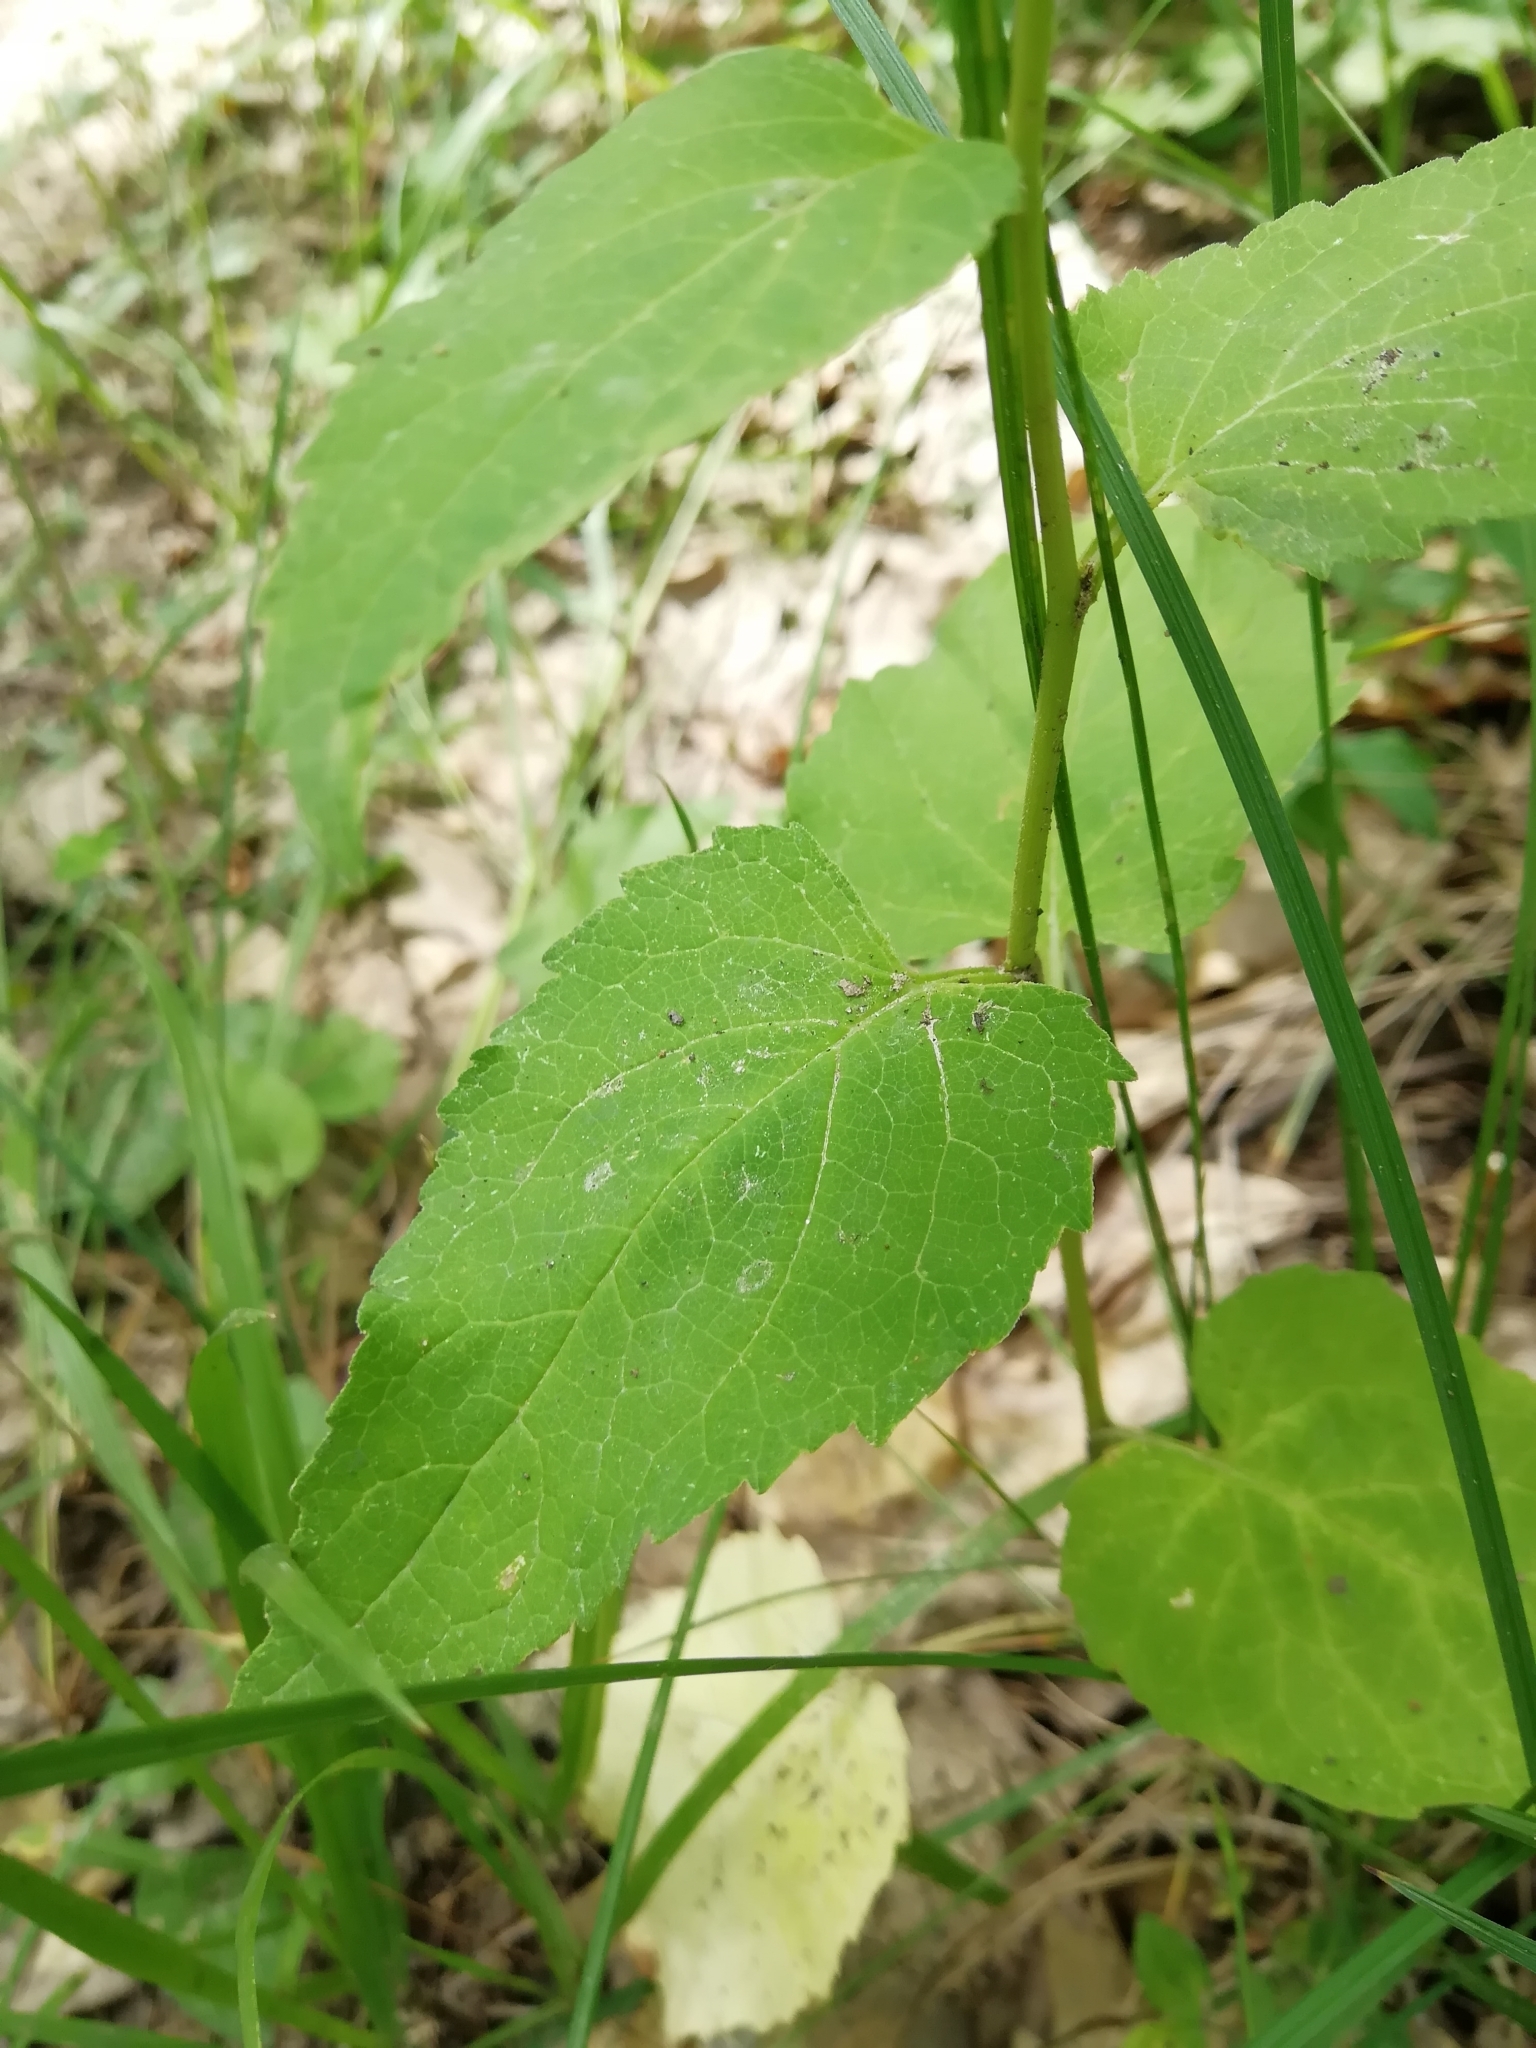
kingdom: Plantae
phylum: Tracheophyta
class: Magnoliopsida
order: Asterales
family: Campanulaceae
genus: Campanula
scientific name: Campanula rapunculoides
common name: Creeping bellflower
